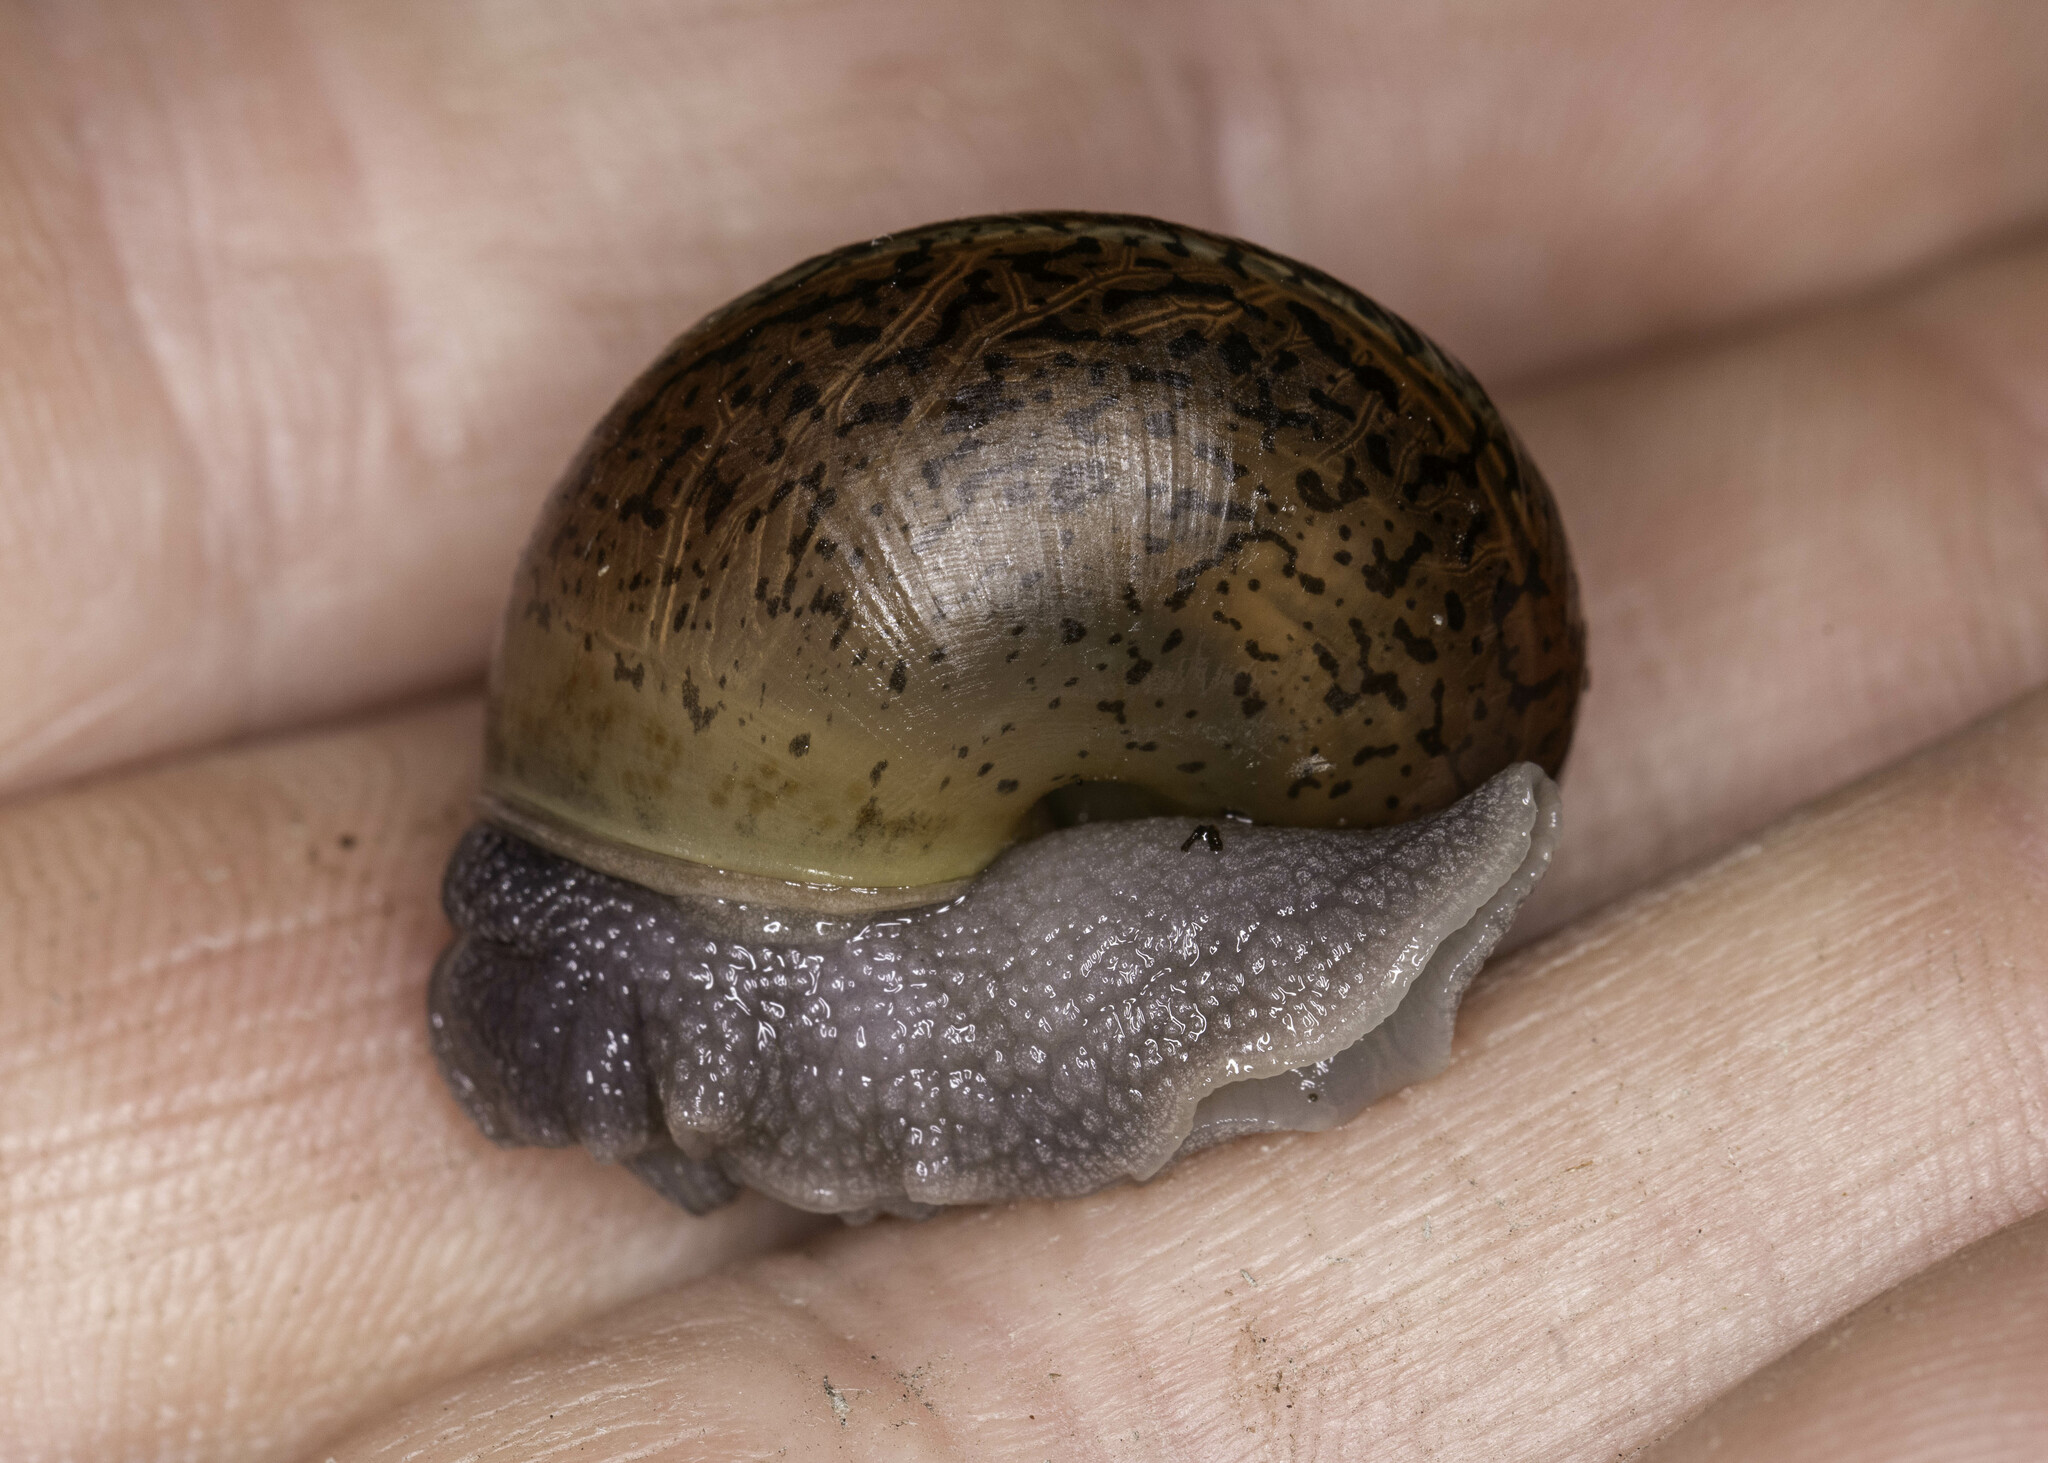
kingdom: Animalia
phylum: Mollusca
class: Gastropoda
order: Stylommatophora
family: Xanthonychidae
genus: Helminthoglypta
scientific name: Helminthoglypta traskii
